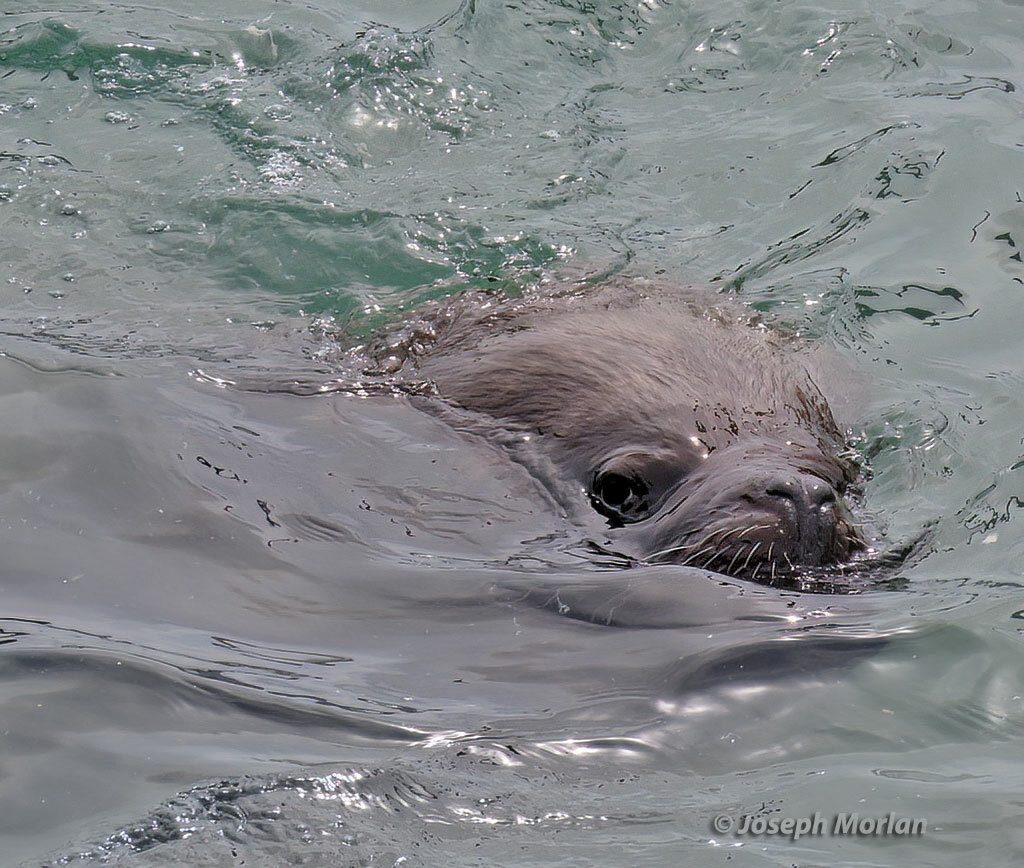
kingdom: Animalia
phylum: Chordata
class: Mammalia
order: Carnivora
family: Otariidae
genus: Otaria
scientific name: Otaria byronia
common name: South american sea lion
